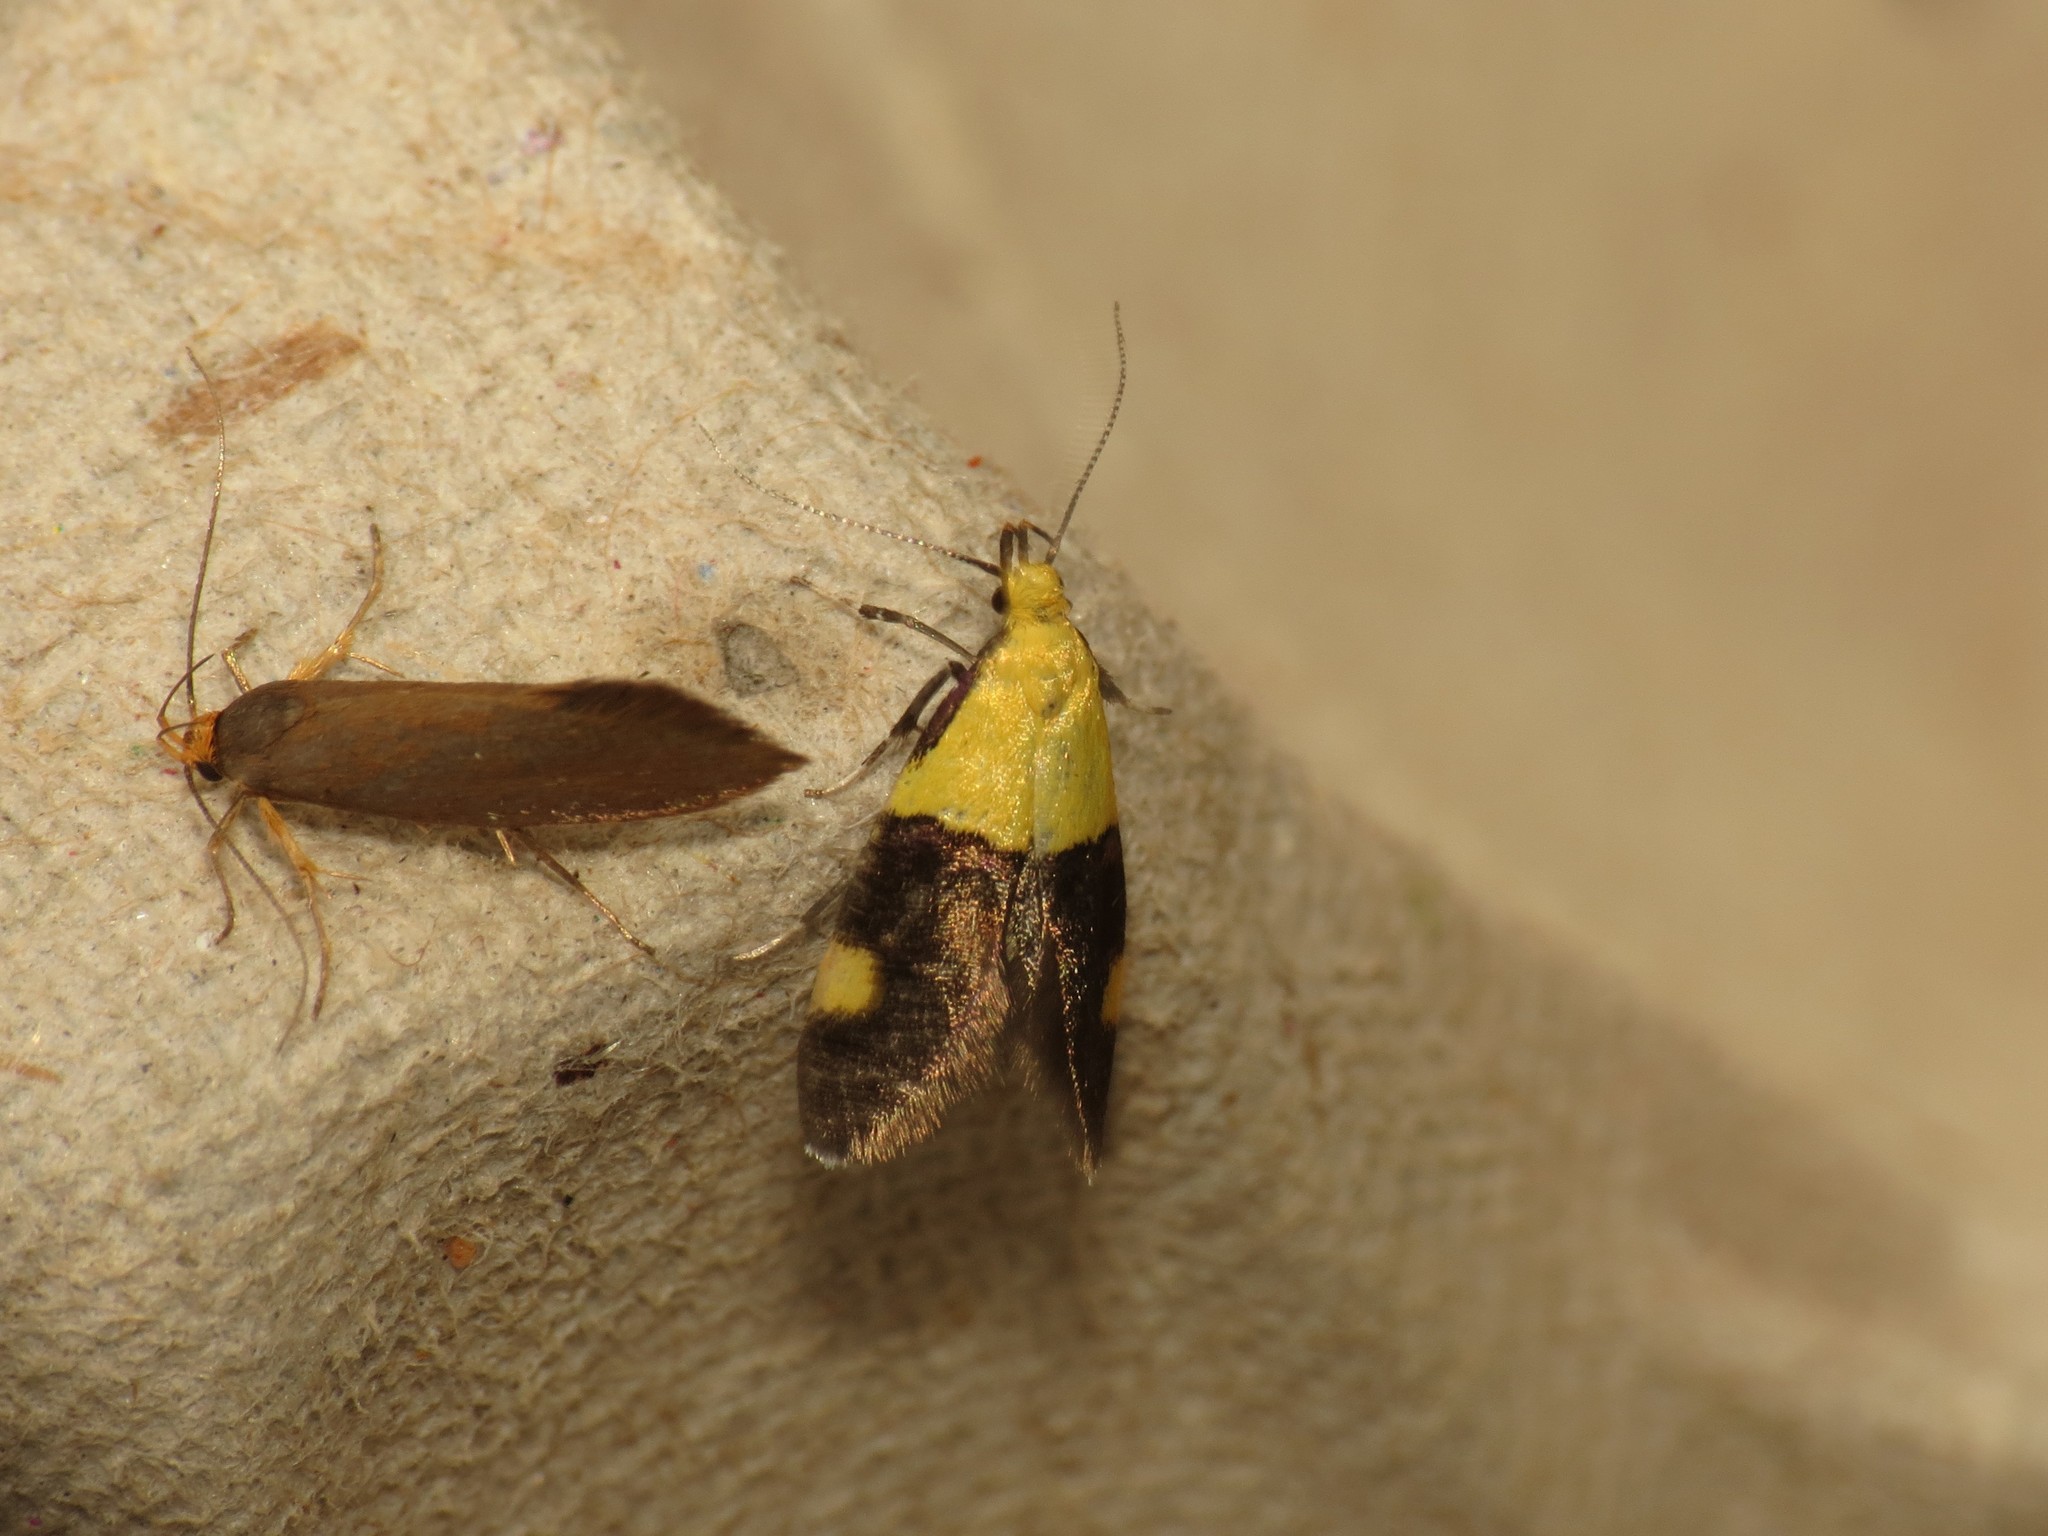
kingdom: Animalia
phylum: Arthropoda
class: Insecta
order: Lepidoptera
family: Oecophoridae
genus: Oecophora
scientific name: Oecophora bractella
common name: Gold-base tubic
